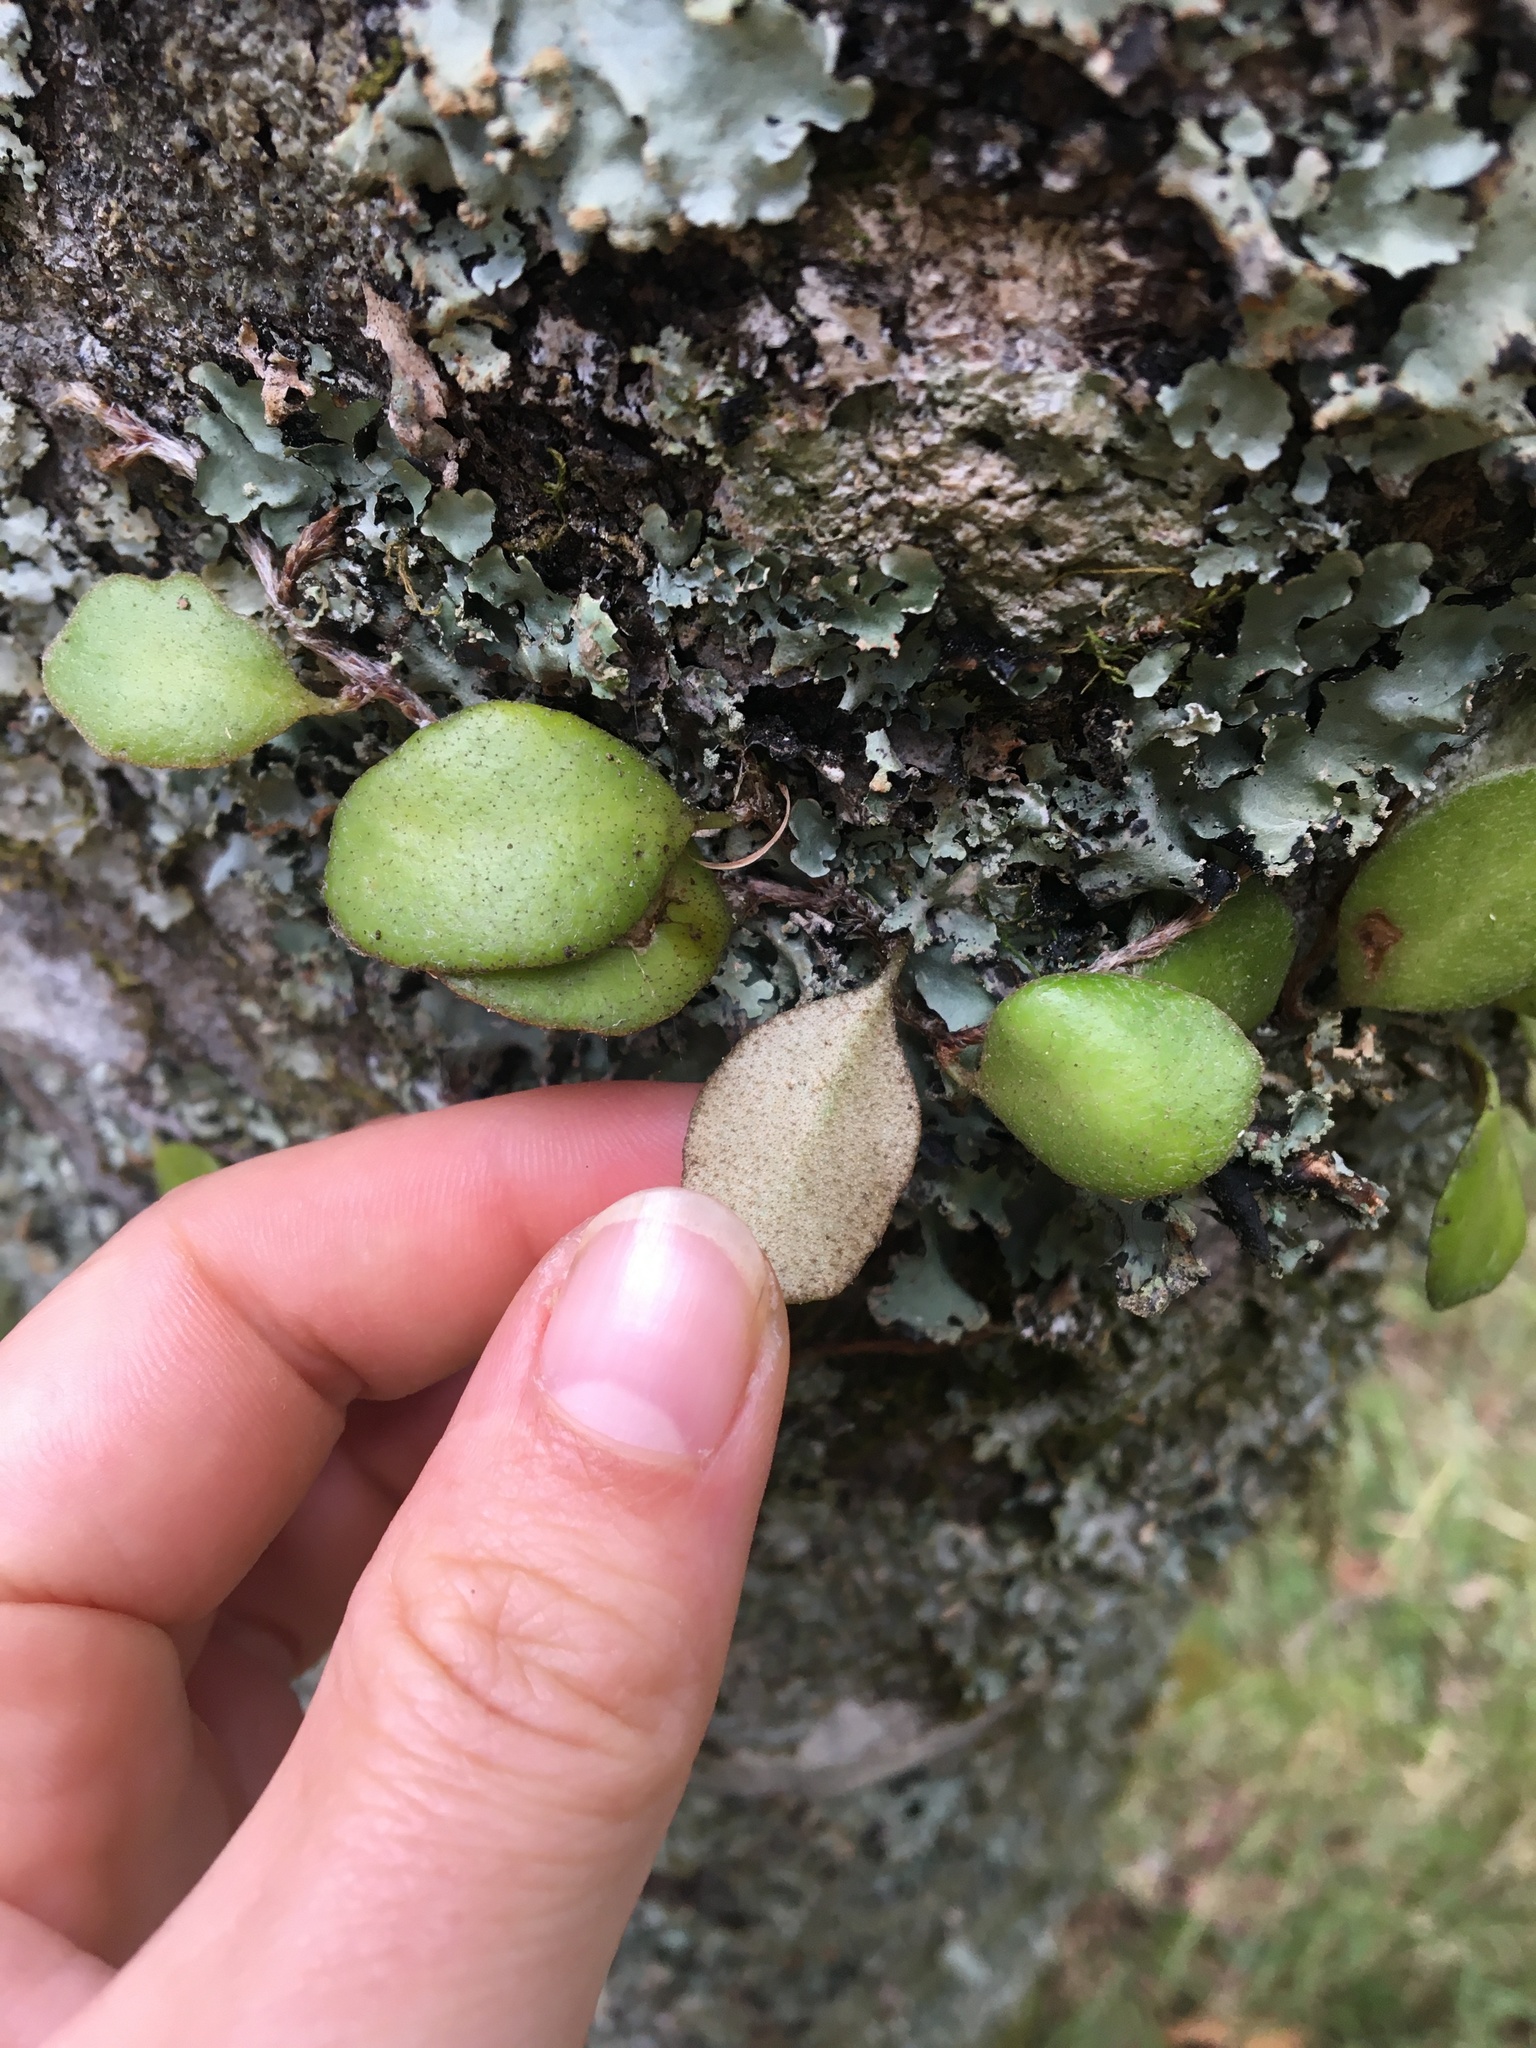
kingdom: Plantae
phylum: Tracheophyta
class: Polypodiopsida
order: Polypodiales
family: Polypodiaceae
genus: Pyrrosia
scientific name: Pyrrosia eleagnifolia
